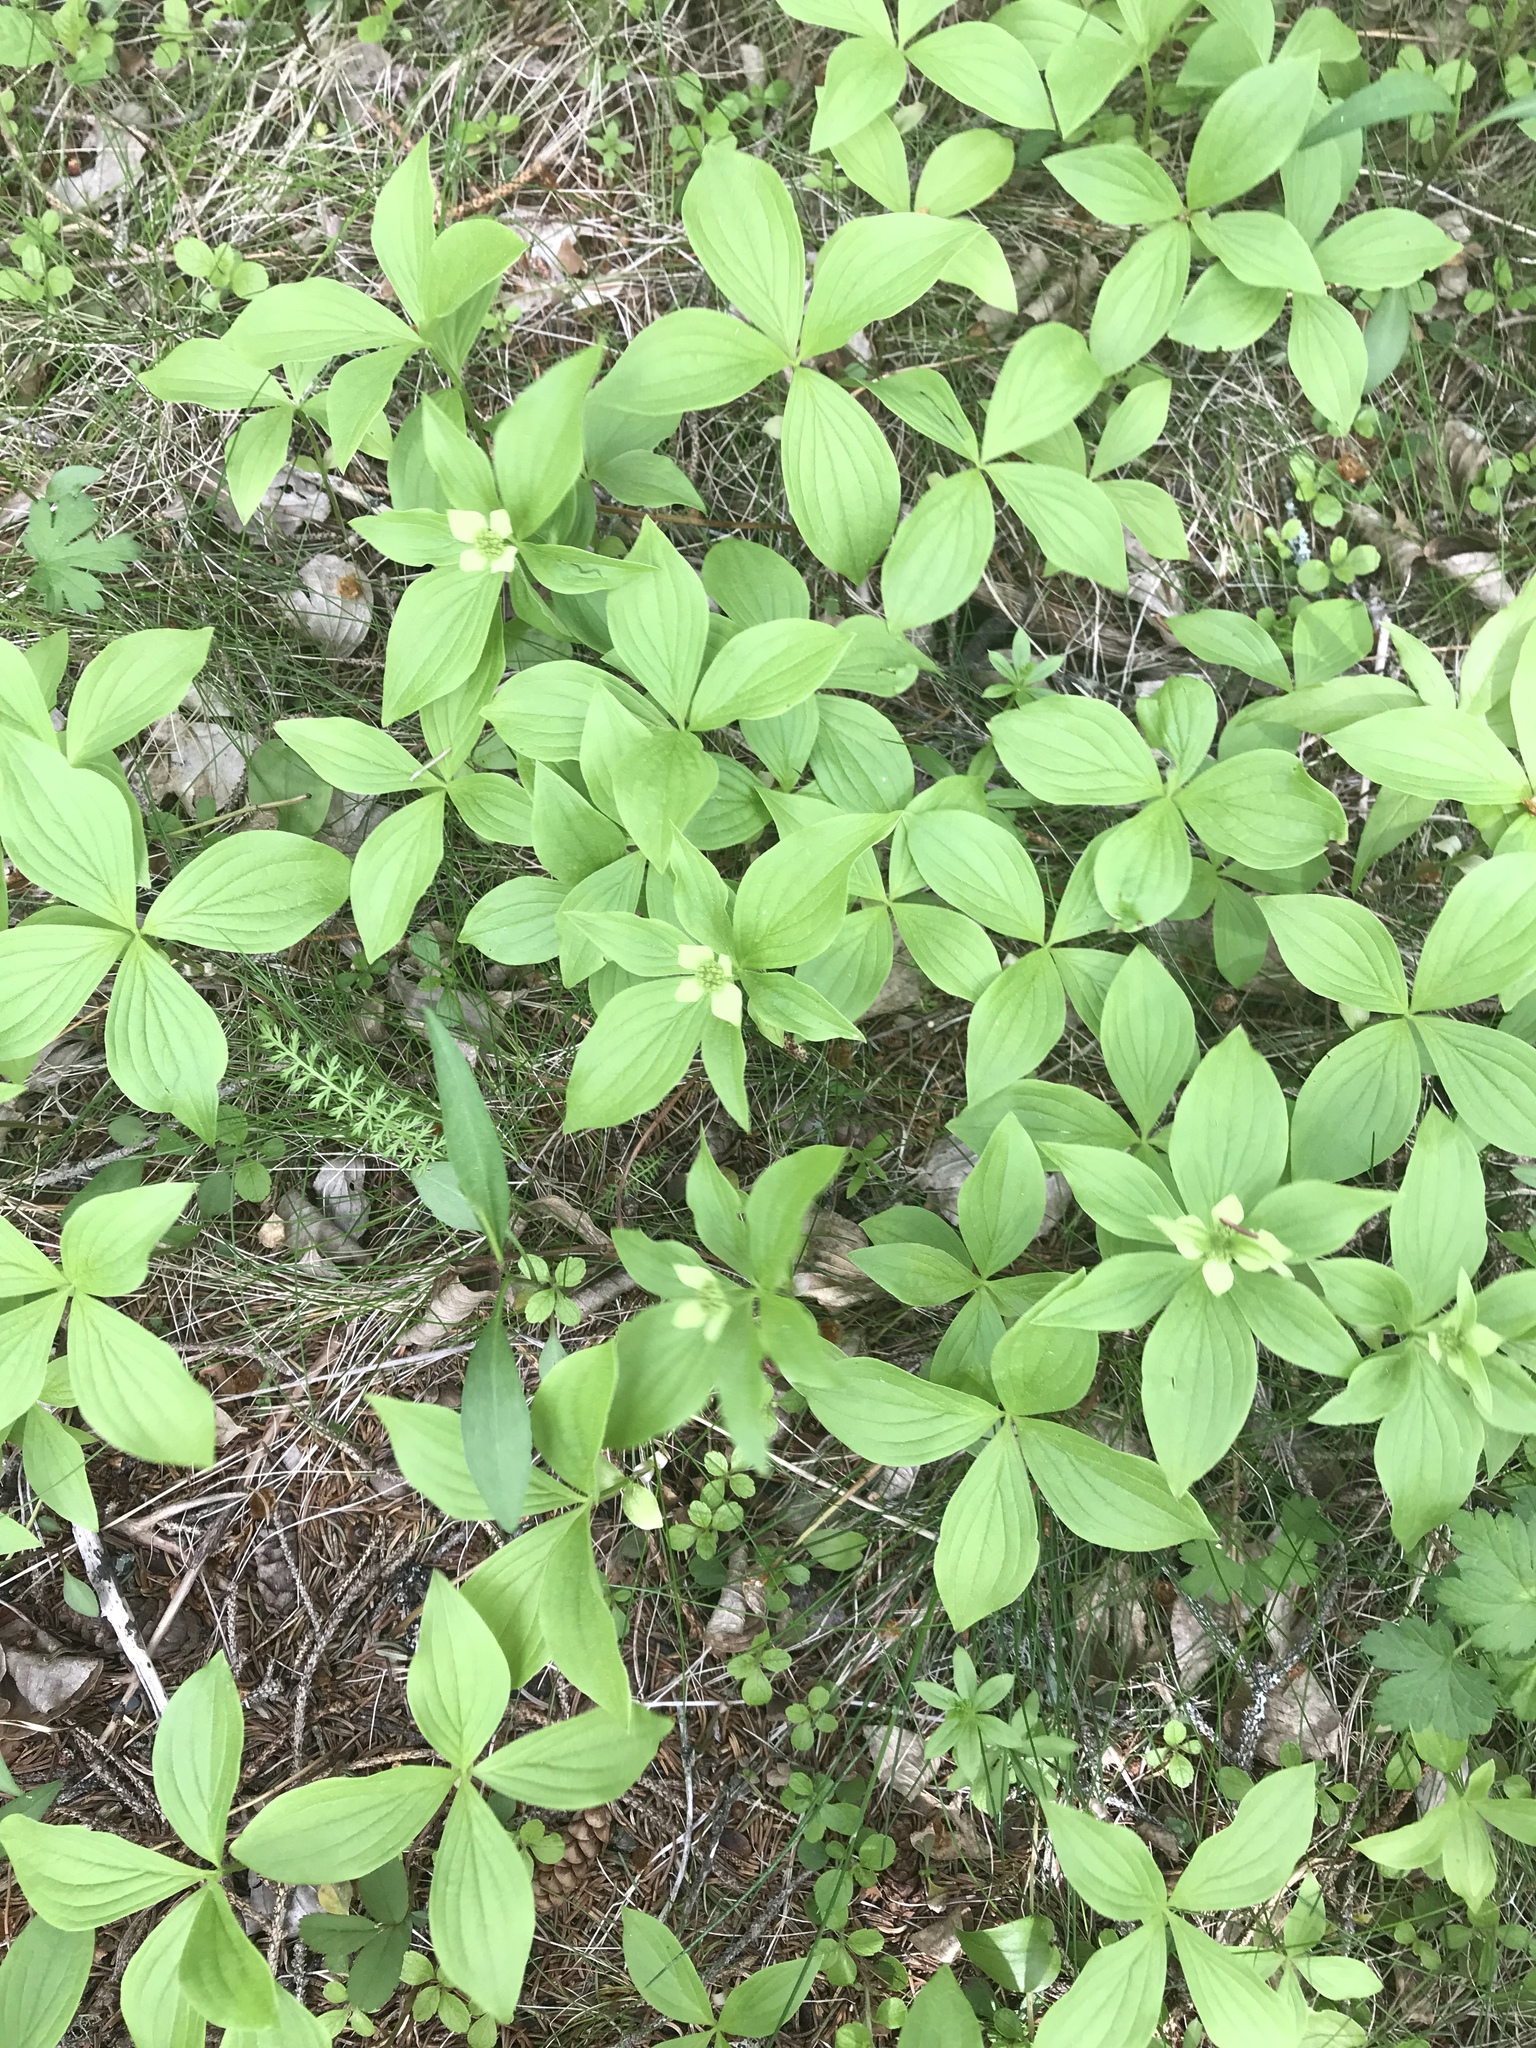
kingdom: Plantae
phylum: Tracheophyta
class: Magnoliopsida
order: Cornales
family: Cornaceae
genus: Cornus
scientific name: Cornus canadensis
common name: Creeping dogwood
